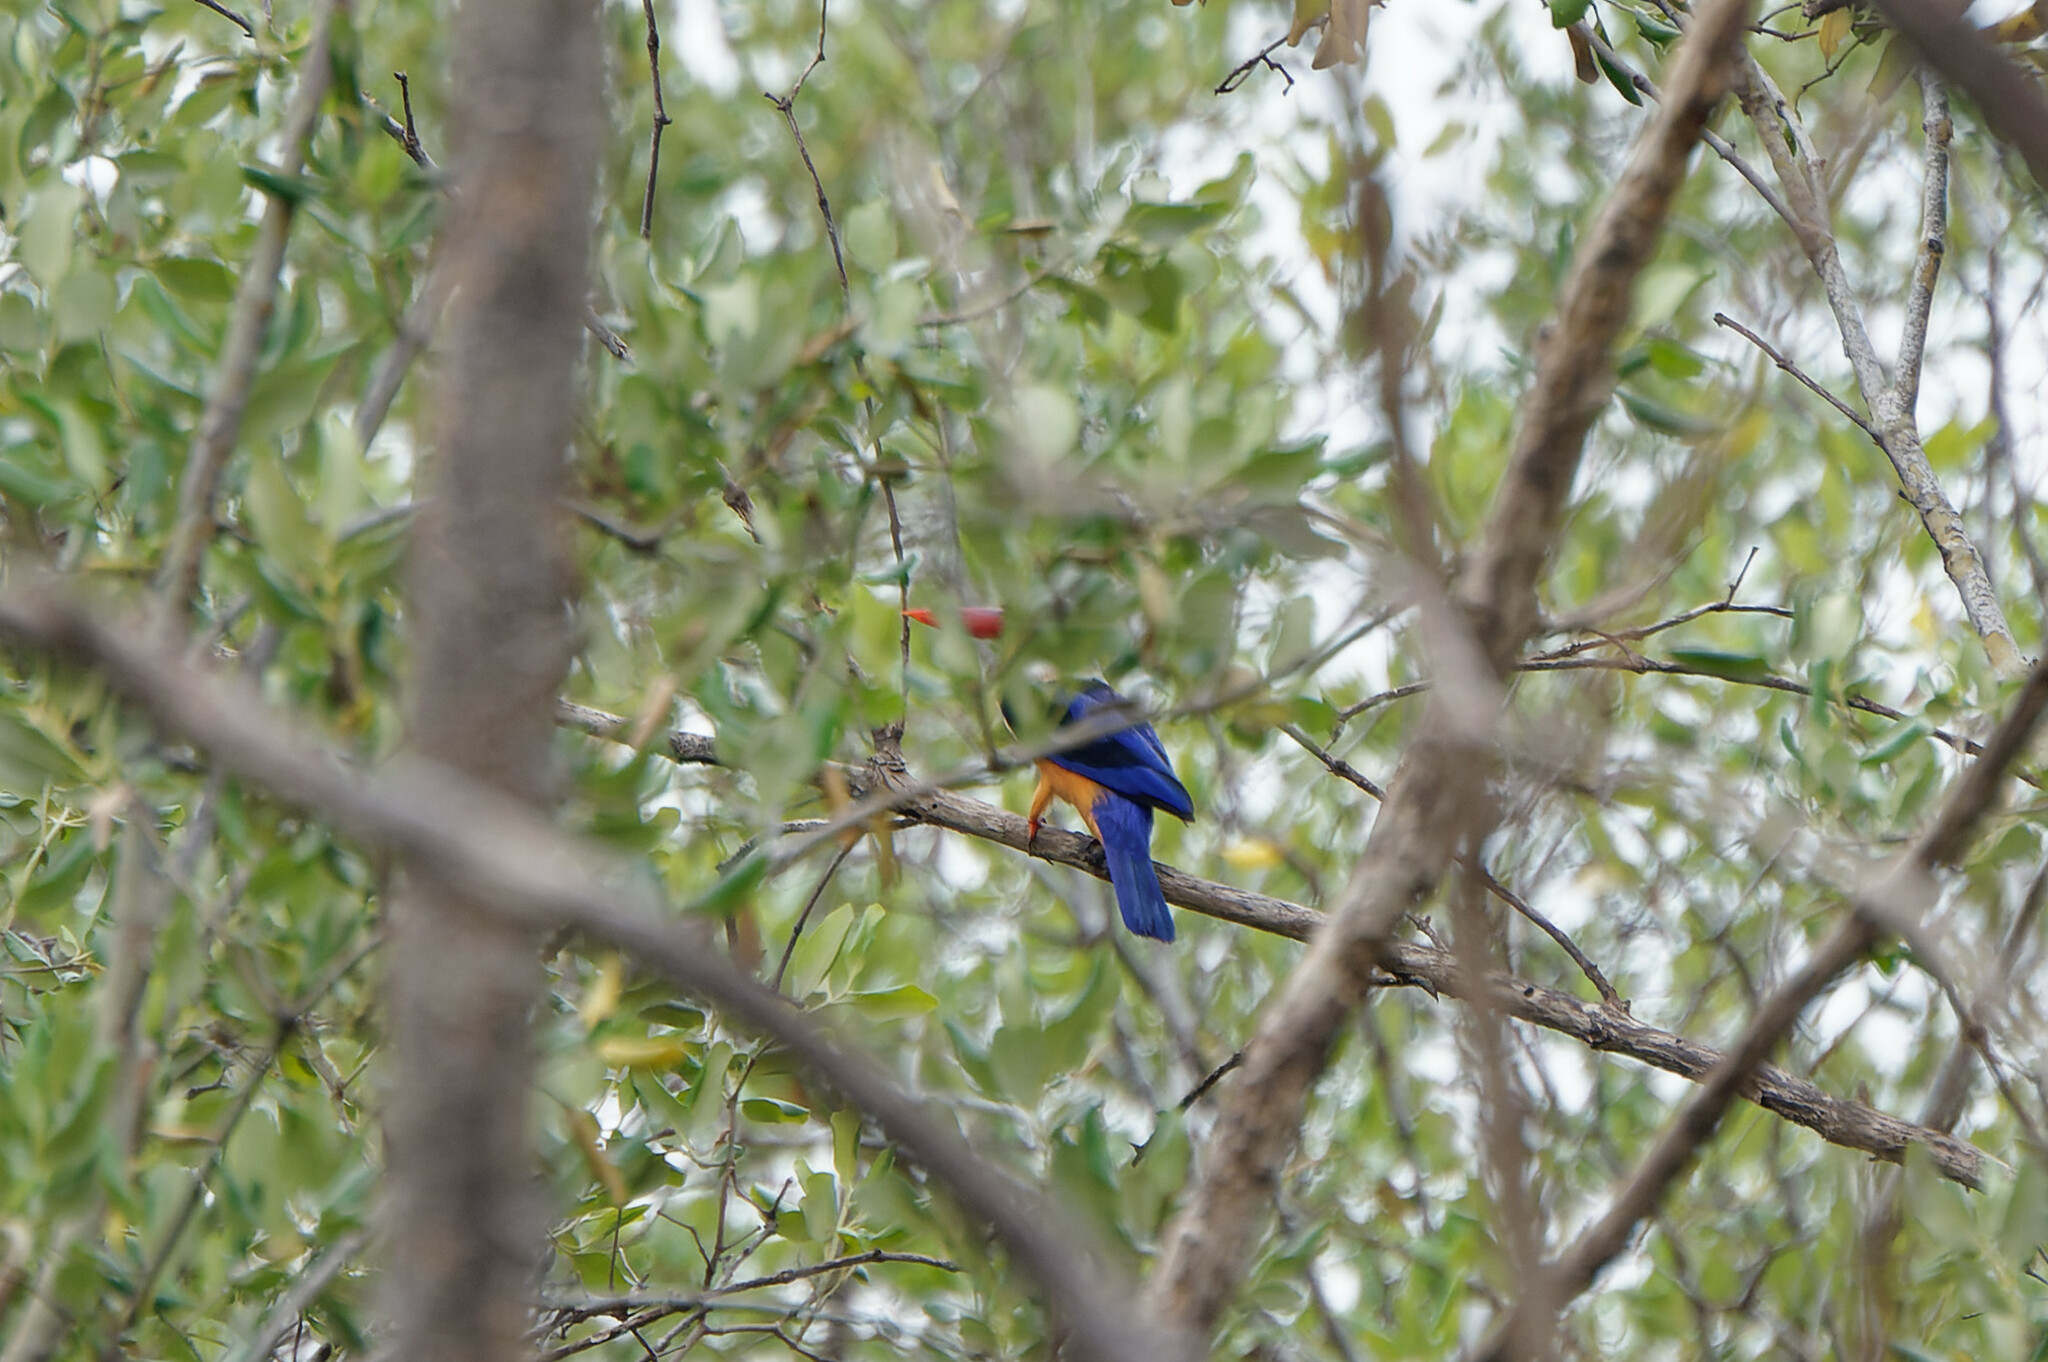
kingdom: Animalia
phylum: Chordata
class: Aves
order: Coraciiformes
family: Alcedinidae
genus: Halcyon
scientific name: Halcyon pileata
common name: Black-capped kingfisher
